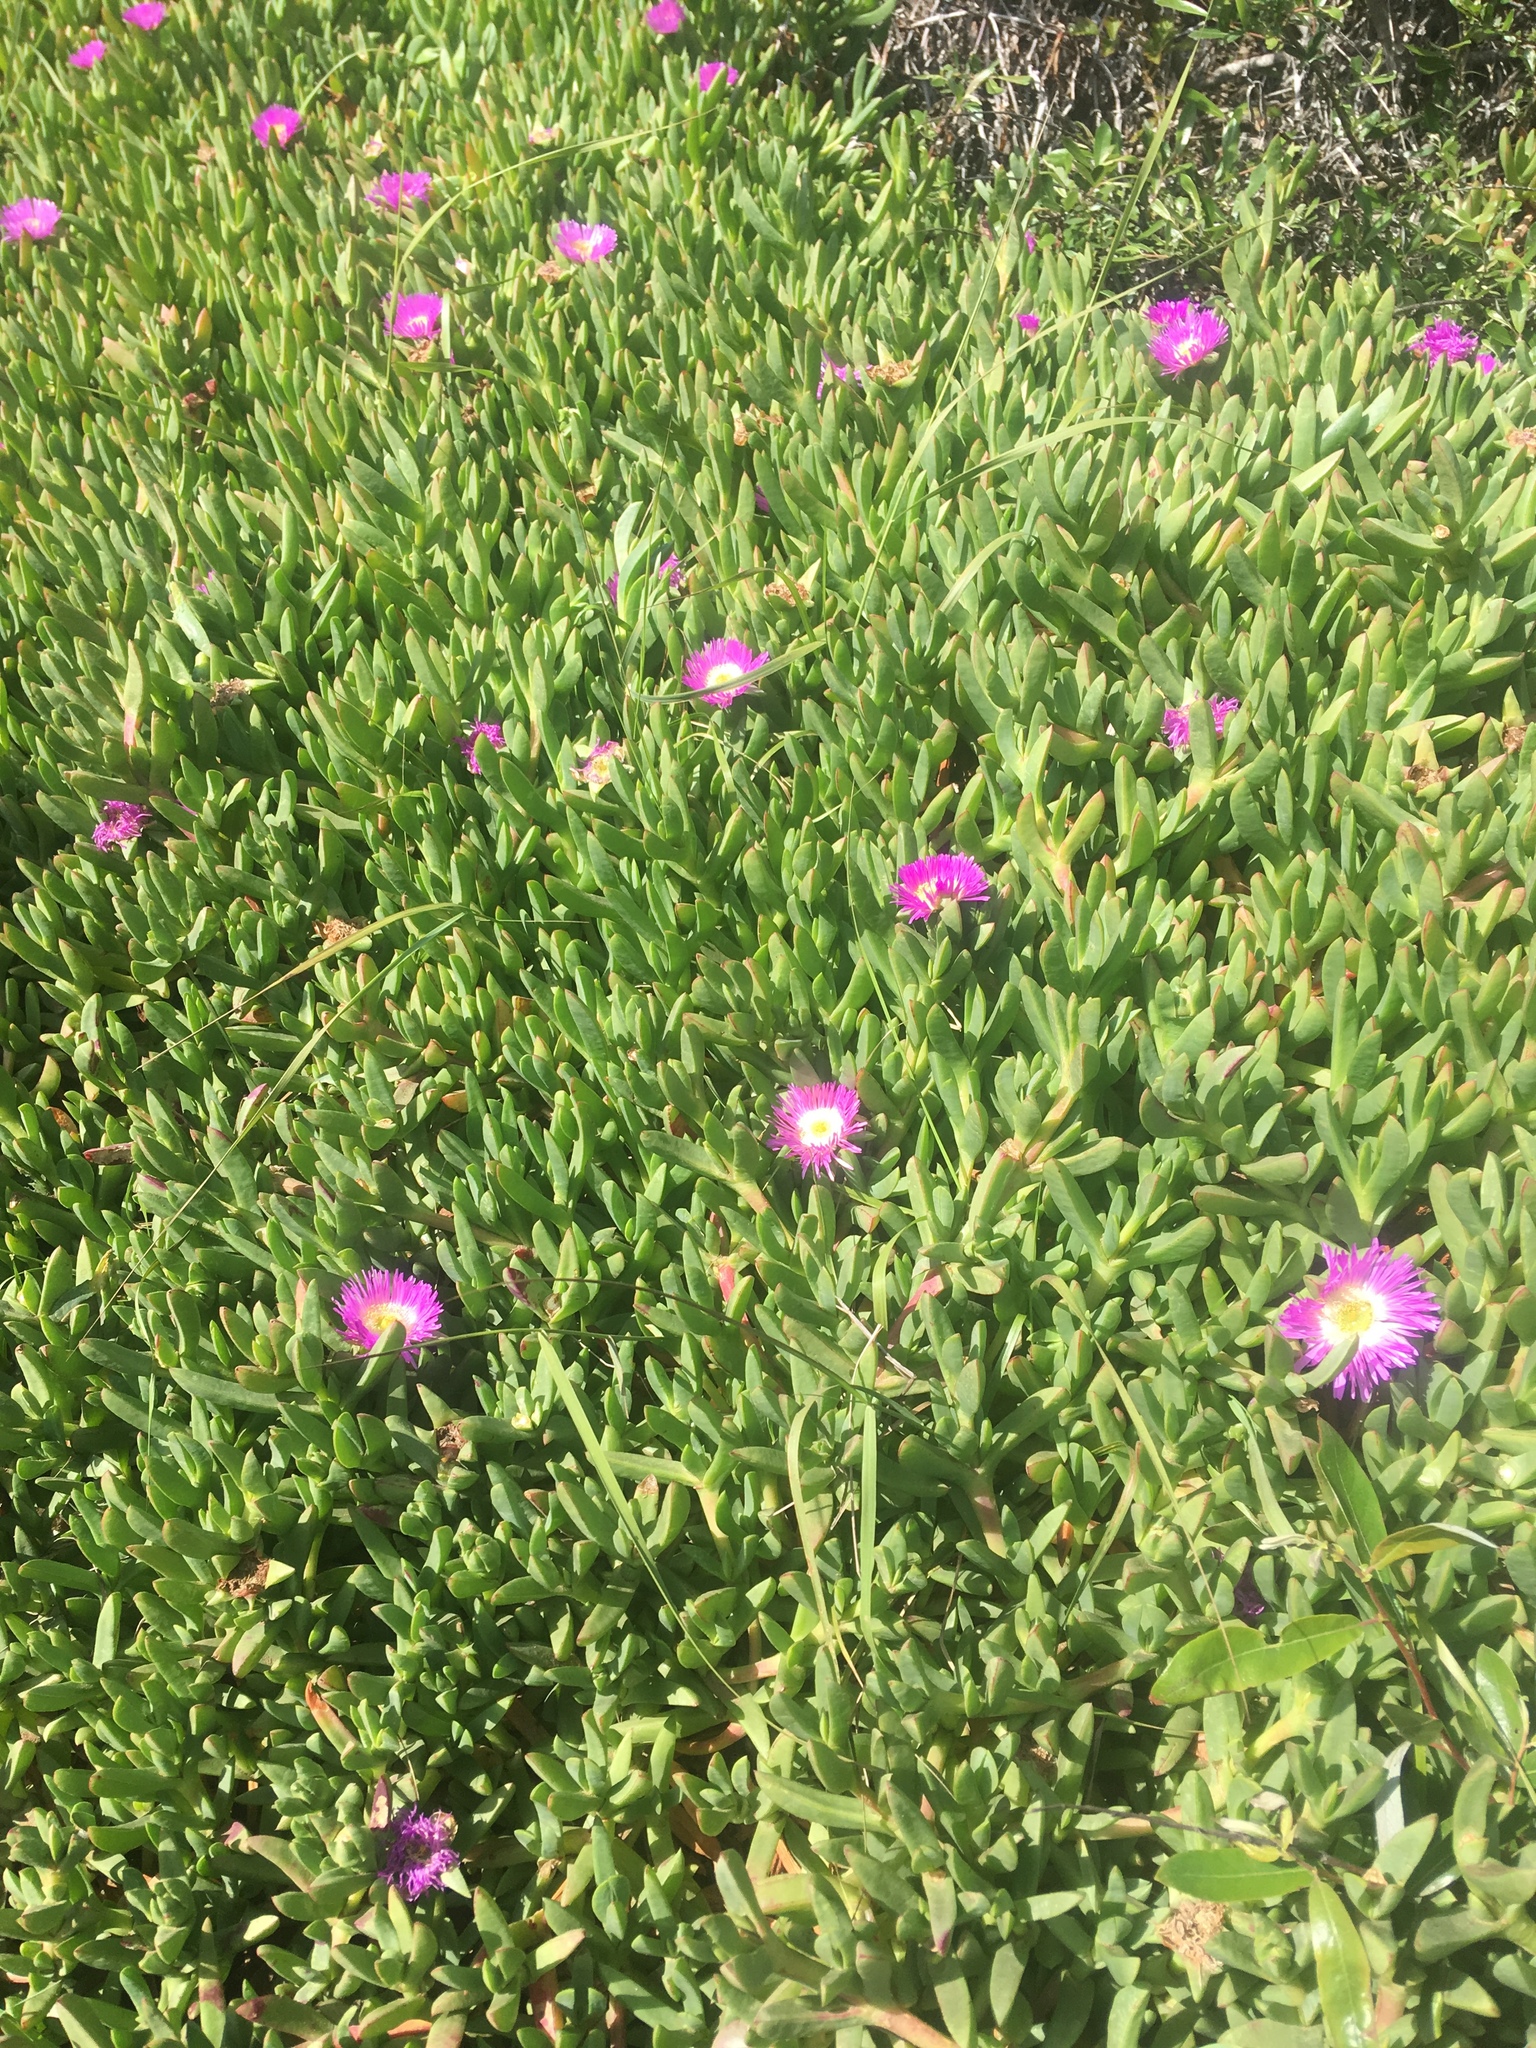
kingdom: Plantae
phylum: Tracheophyta
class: Magnoliopsida
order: Caryophyllales
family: Aizoaceae
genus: Carpobrotus
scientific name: Carpobrotus chilensis
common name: Sea fig
